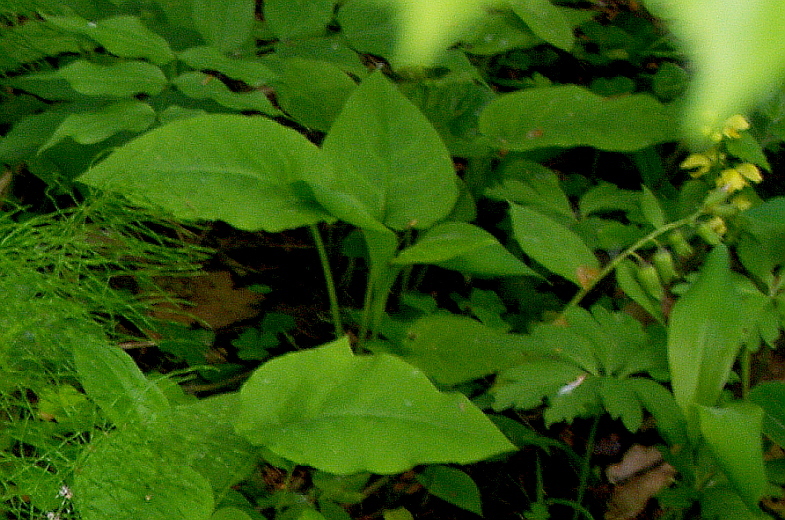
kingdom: Plantae
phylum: Tracheophyta
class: Magnoliopsida
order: Boraginales
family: Boraginaceae
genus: Pulmonaria
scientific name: Pulmonaria obscura
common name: Suffolk lungwort
